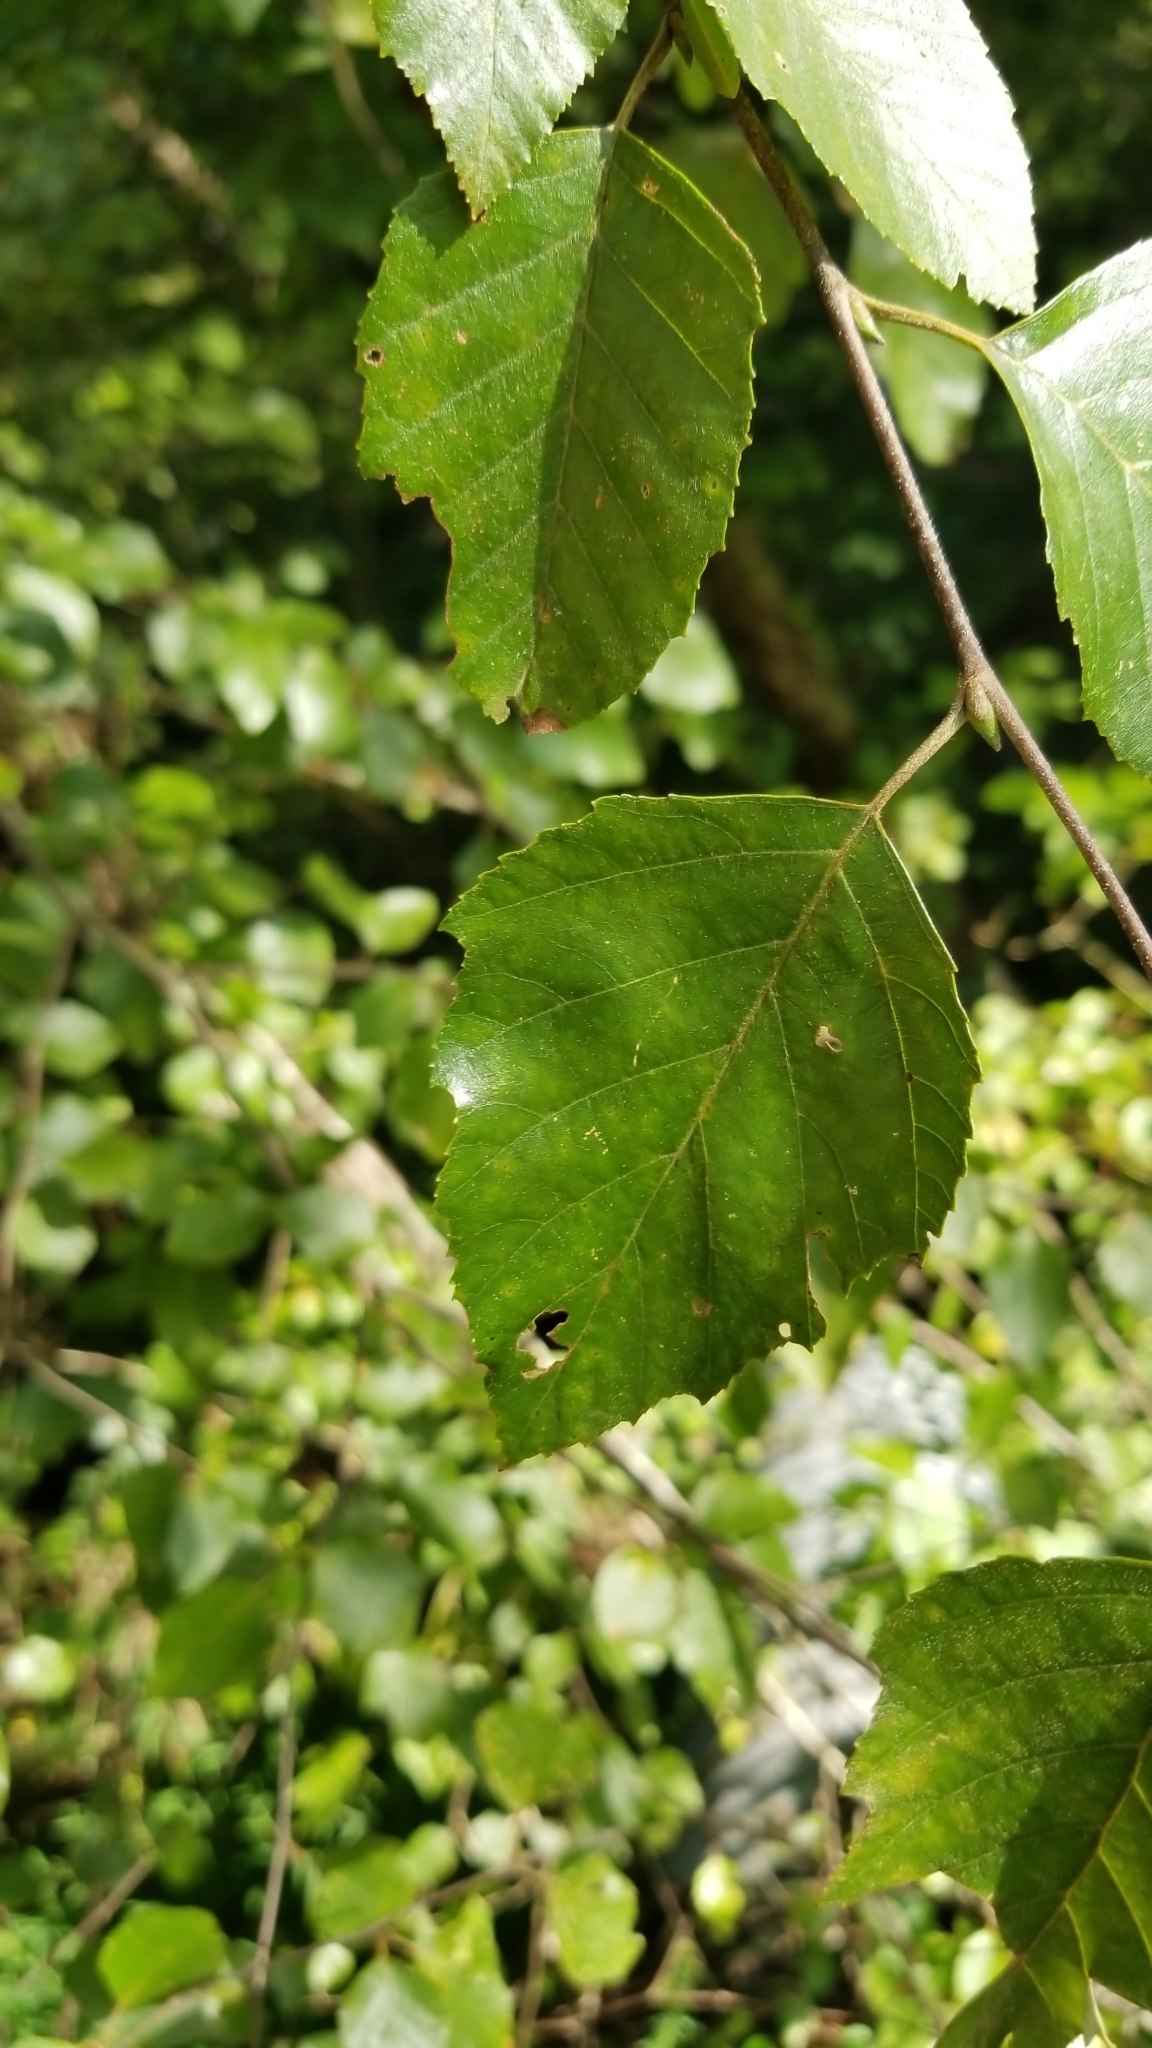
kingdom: Plantae
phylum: Tracheophyta
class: Magnoliopsida
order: Fagales
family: Betulaceae
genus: Betula
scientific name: Betula nigra
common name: Black birch
